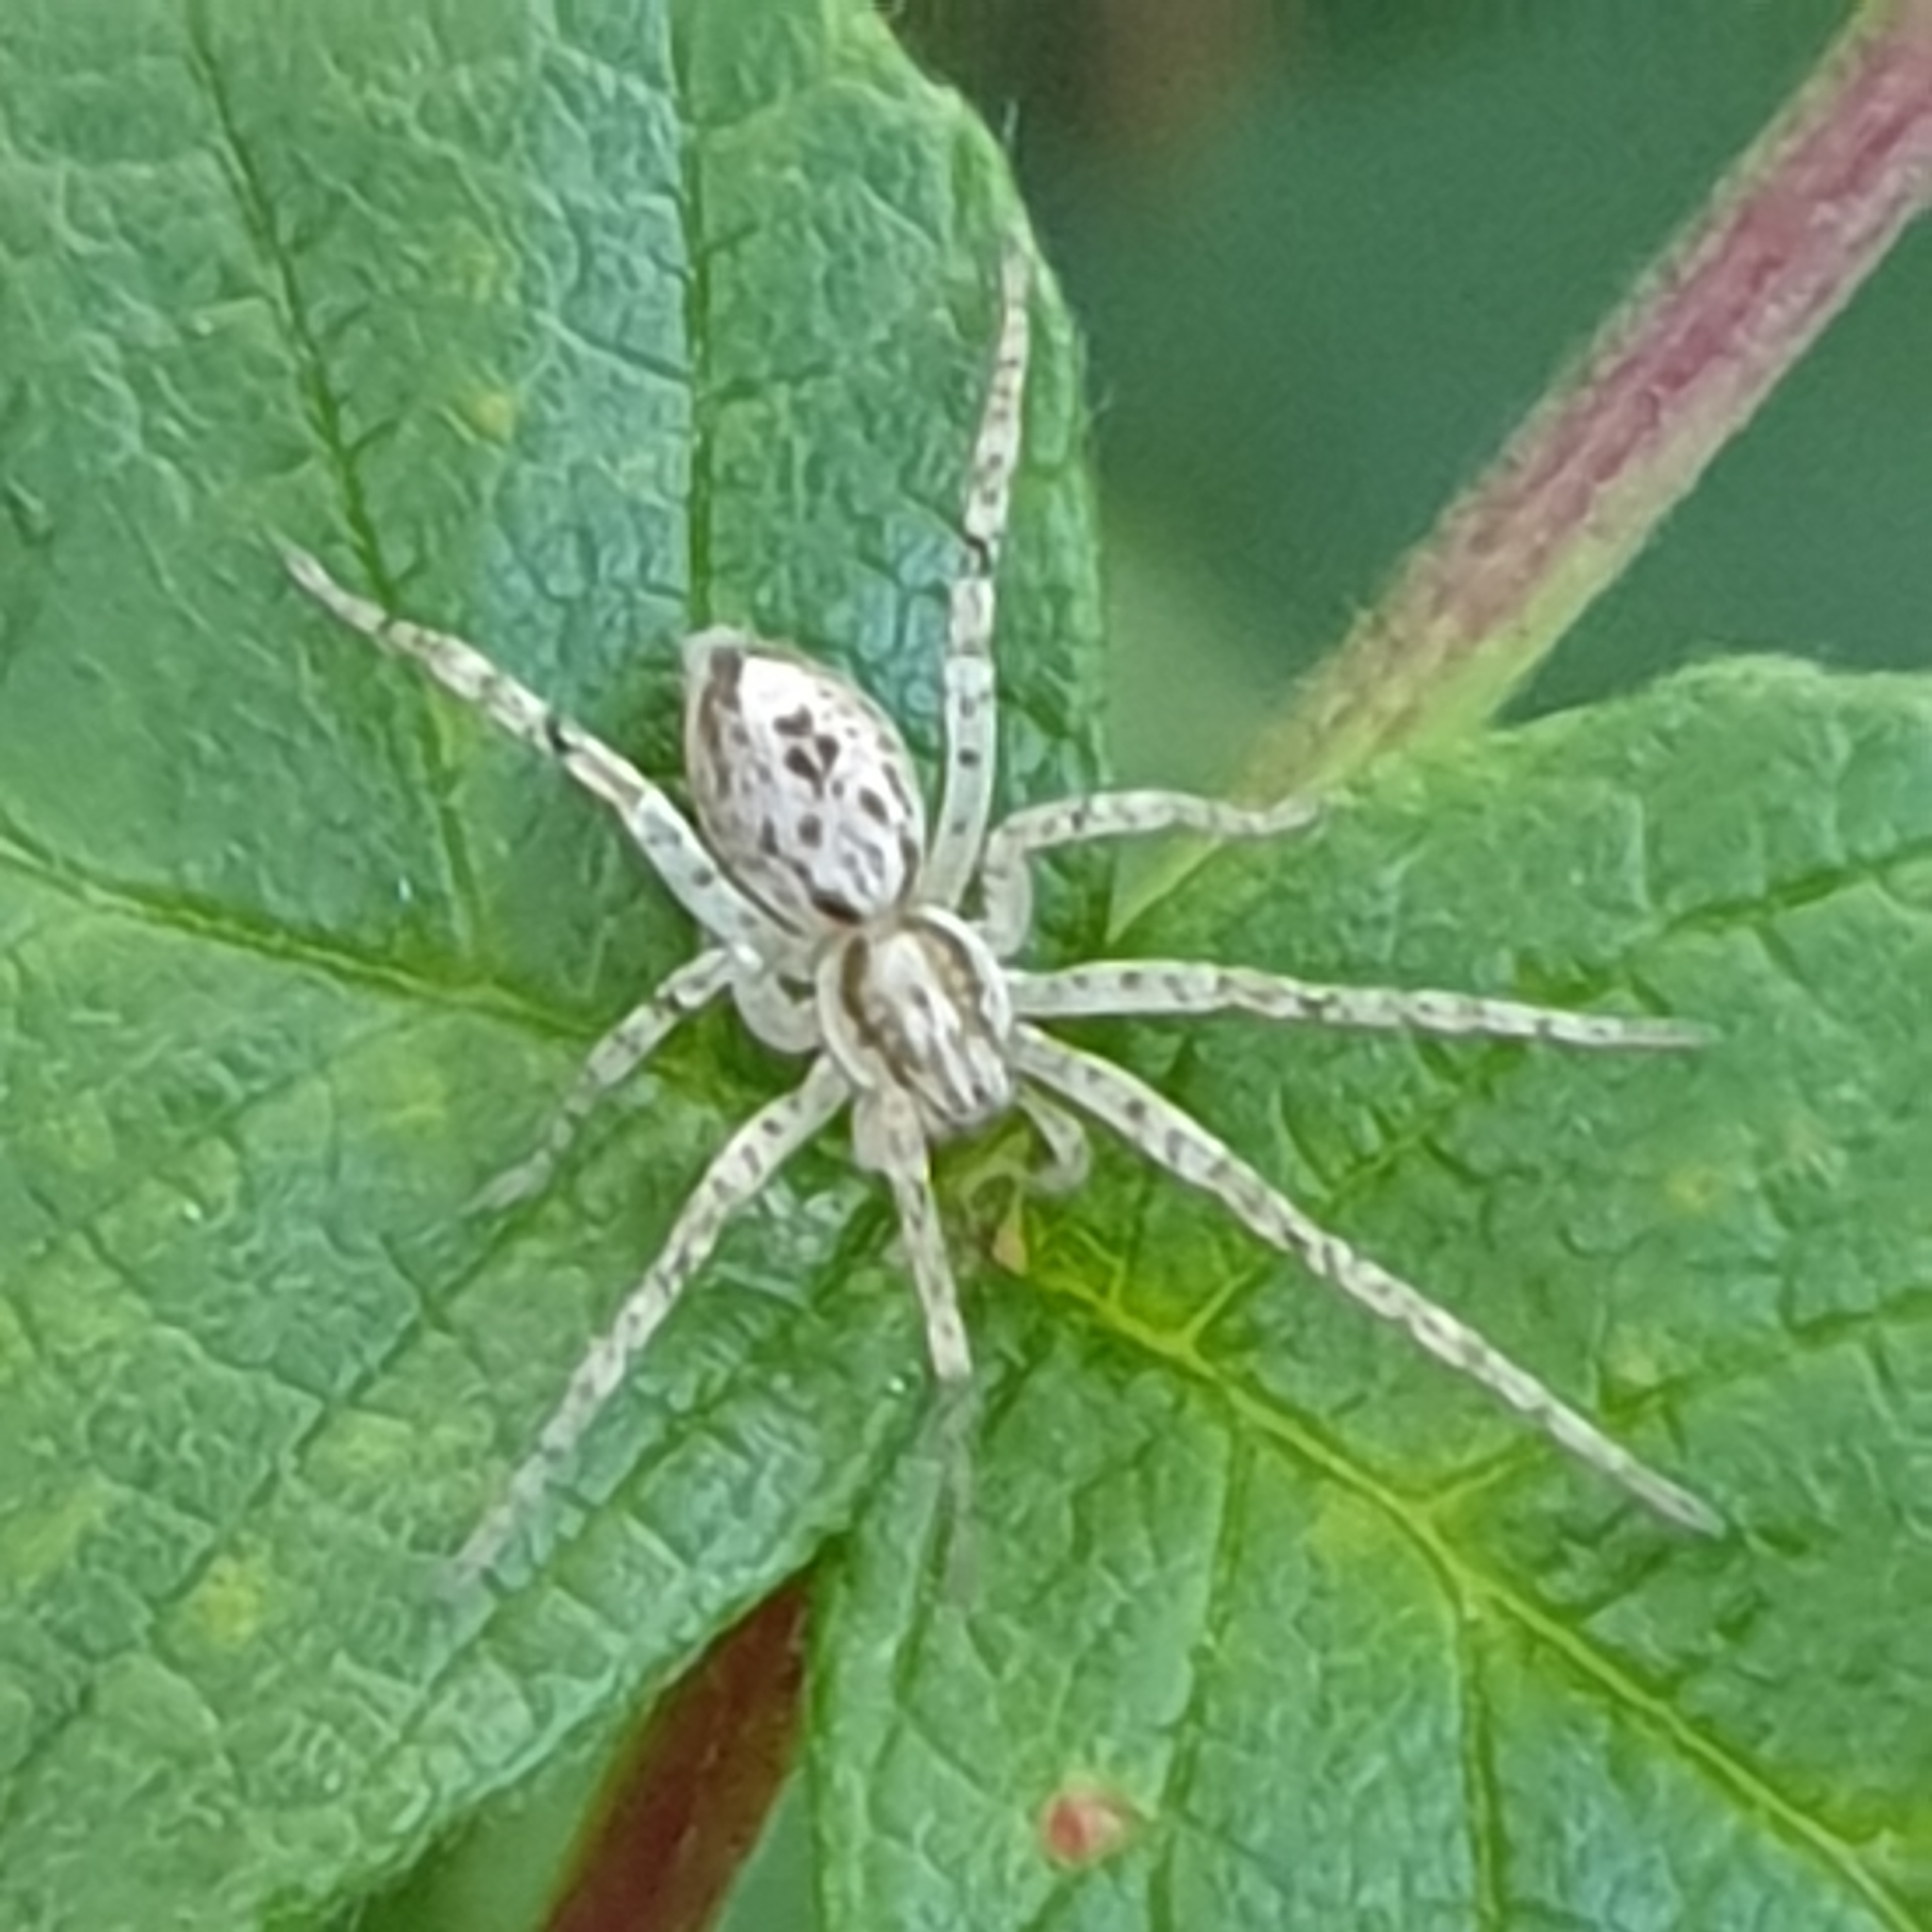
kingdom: Animalia
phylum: Arthropoda
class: Arachnida
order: Araneae
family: Anyphaenidae
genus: Anyphaena
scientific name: Anyphaena accentuata
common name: Buzzing spider
